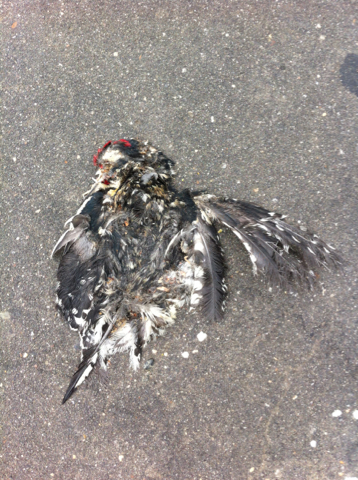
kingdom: Animalia
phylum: Chordata
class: Aves
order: Piciformes
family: Picidae
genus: Sphyrapicus
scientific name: Sphyrapicus varius
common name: Yellow-bellied sapsucker
